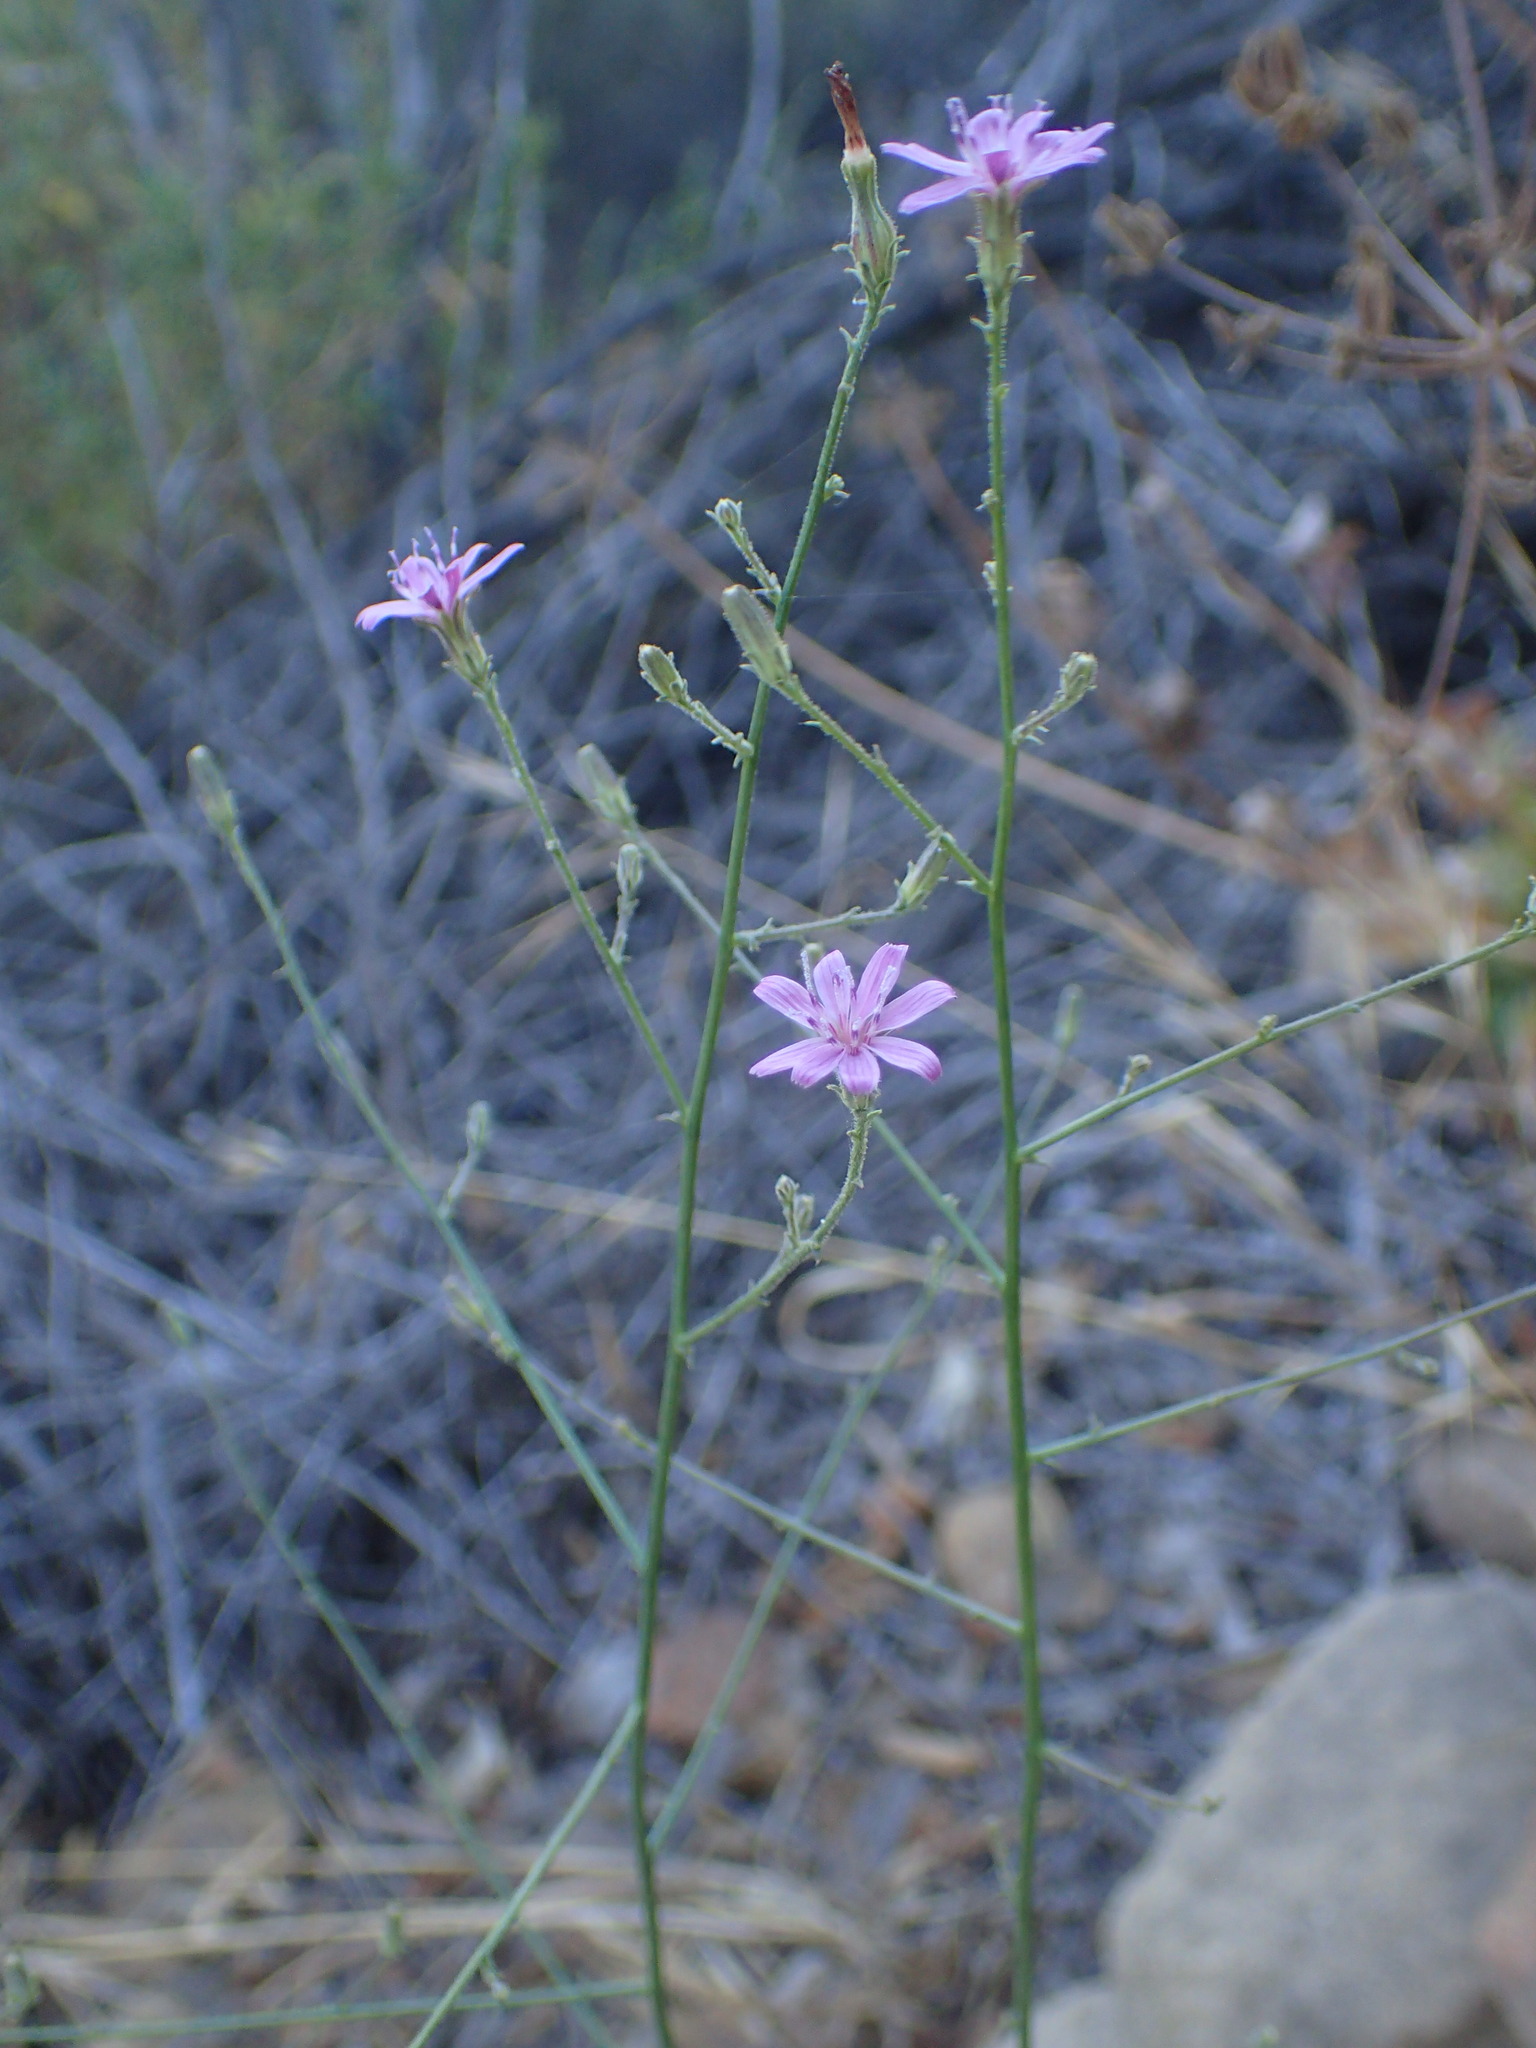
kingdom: Plantae
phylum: Tracheophyta
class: Magnoliopsida
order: Asterales
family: Asteraceae
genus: Stephanomeria
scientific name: Stephanomeria exigua
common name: Small wirelettuce
